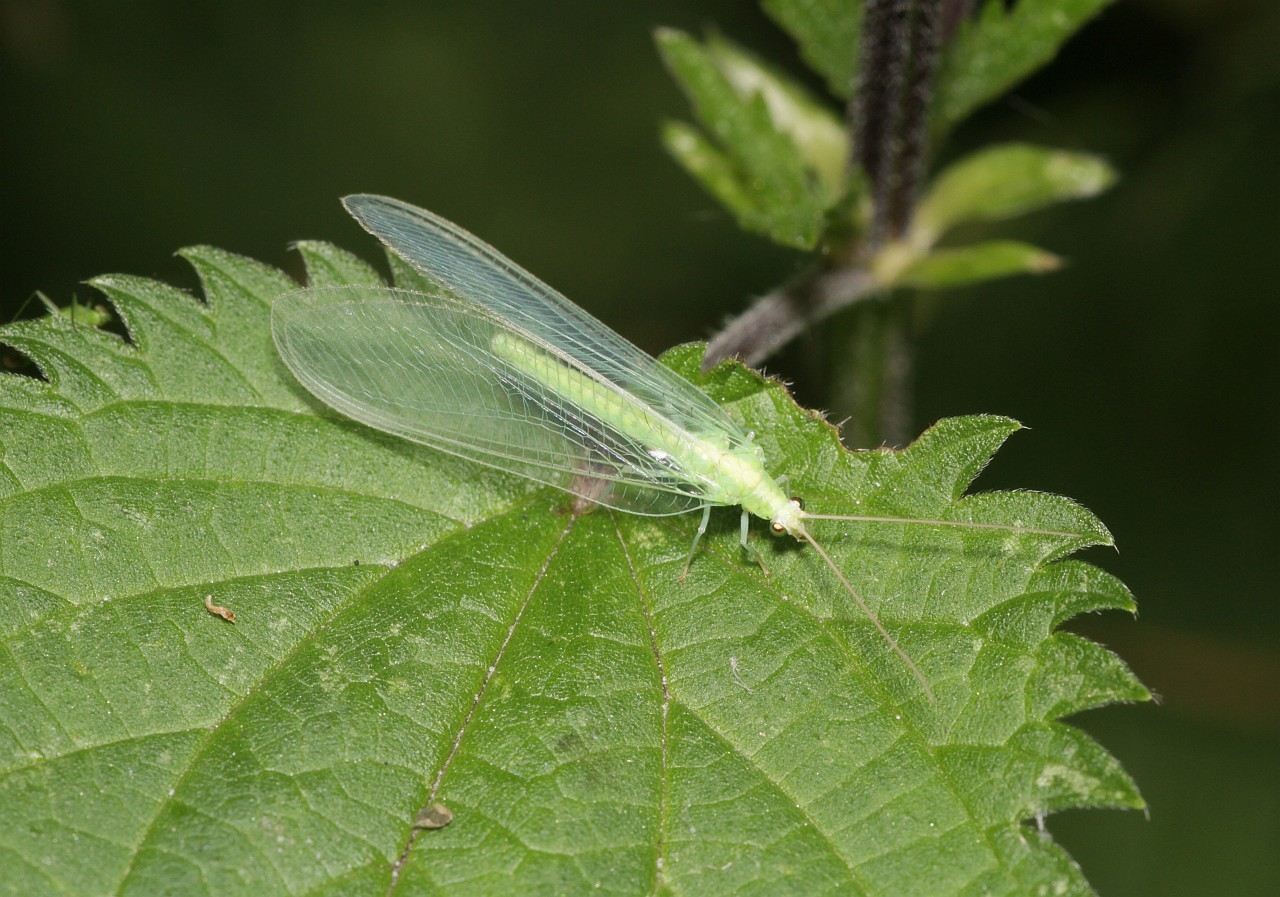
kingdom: Animalia
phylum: Arthropoda
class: Insecta
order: Neuroptera
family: Chrysopidae
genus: Nineta
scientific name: Nineta flava
